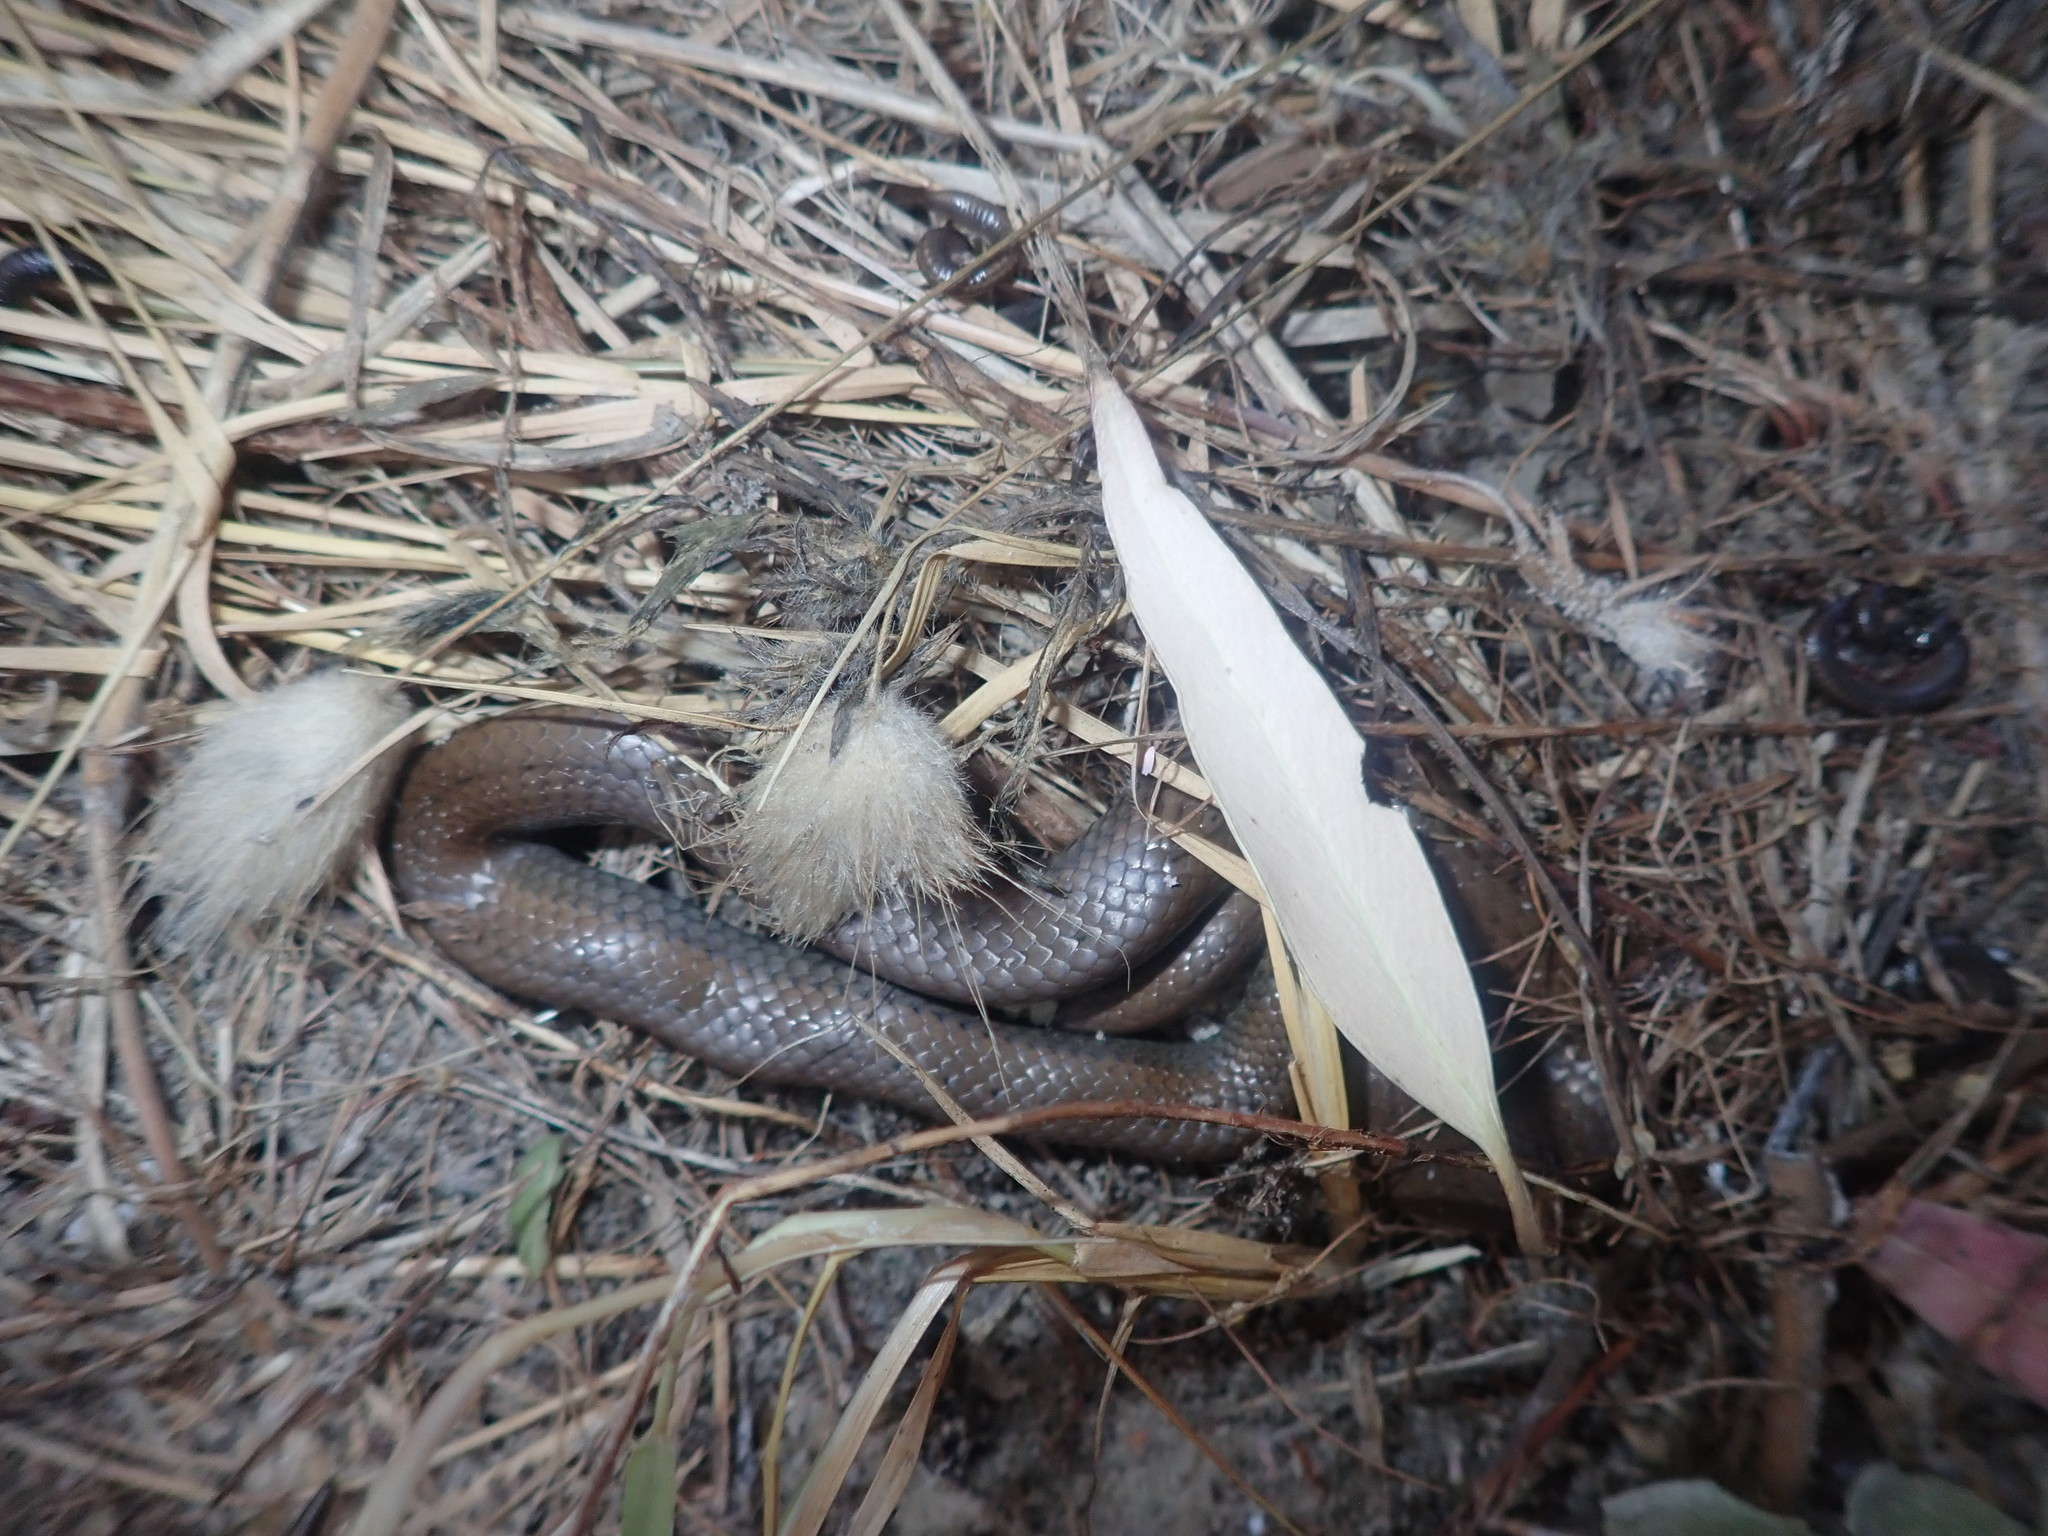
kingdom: Animalia
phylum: Chordata
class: Squamata
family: Pseudoxyrhophiidae
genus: Duberria
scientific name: Duberria lutrix
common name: Common slug eater
